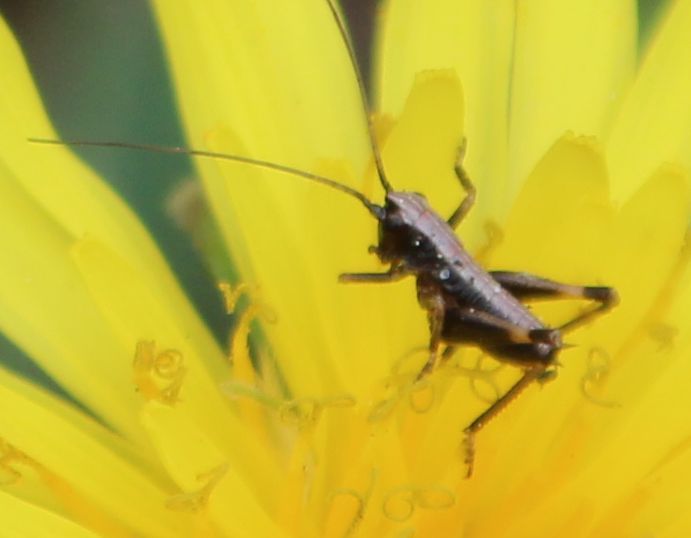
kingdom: Animalia
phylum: Arthropoda
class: Insecta
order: Orthoptera
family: Tettigoniidae
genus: Pholidoptera
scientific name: Pholidoptera griseoaptera
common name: Dark bush-cricket
